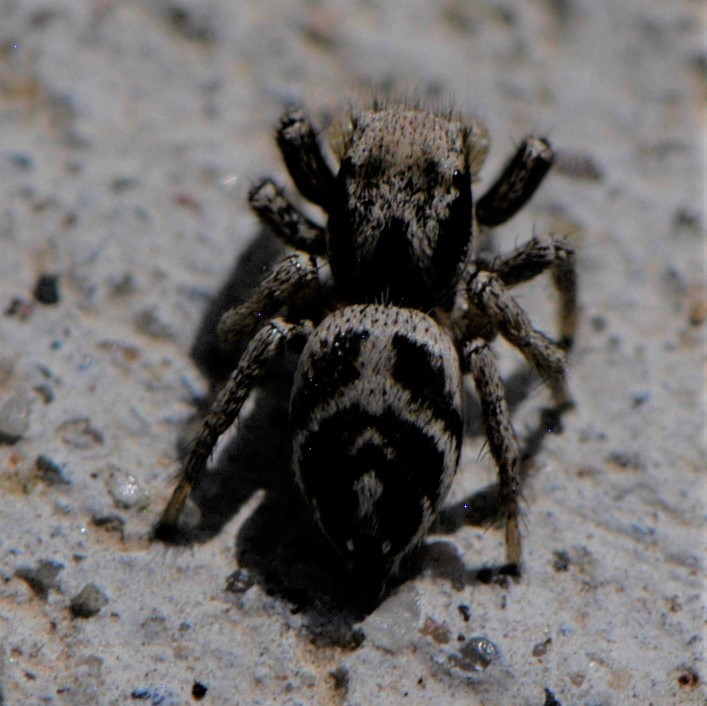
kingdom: Animalia
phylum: Arthropoda
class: Arachnida
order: Araneae
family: Salticidae
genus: Habronattus
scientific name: Habronattus klauseri
